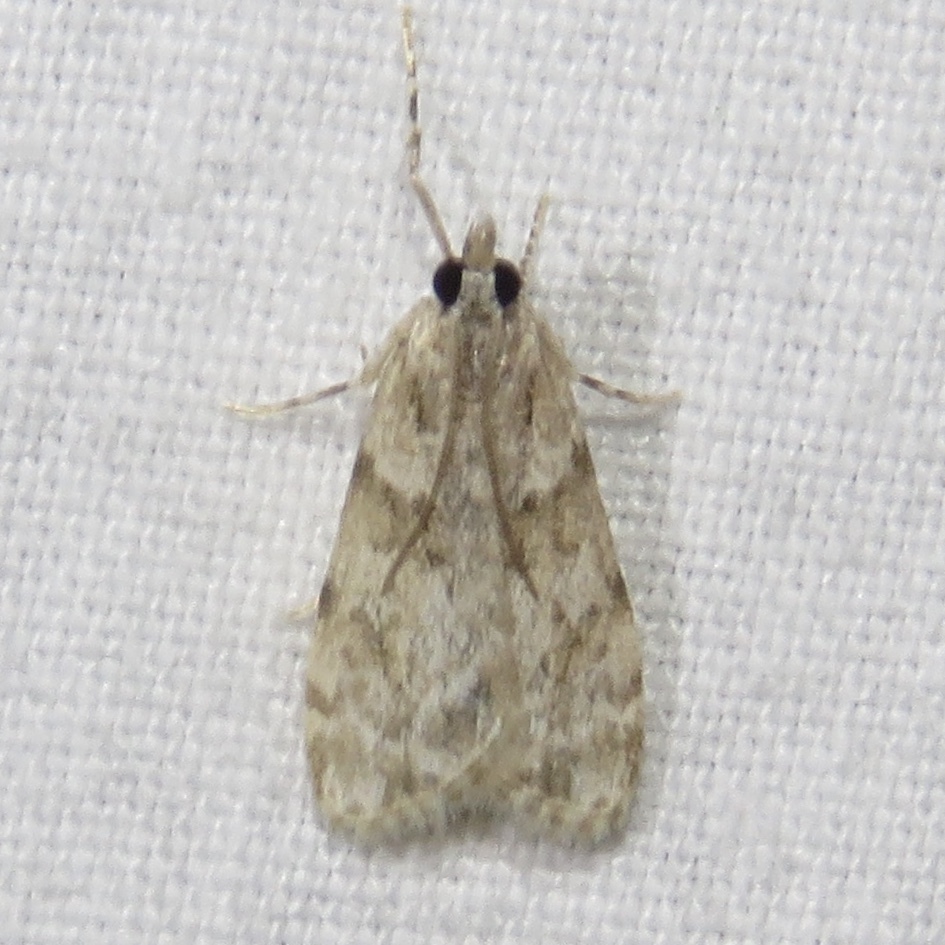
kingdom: Animalia
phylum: Arthropoda
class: Insecta
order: Lepidoptera
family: Crambidae
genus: Scoparia
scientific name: Scoparia biplagialis
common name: Double-striped scoparia moth
